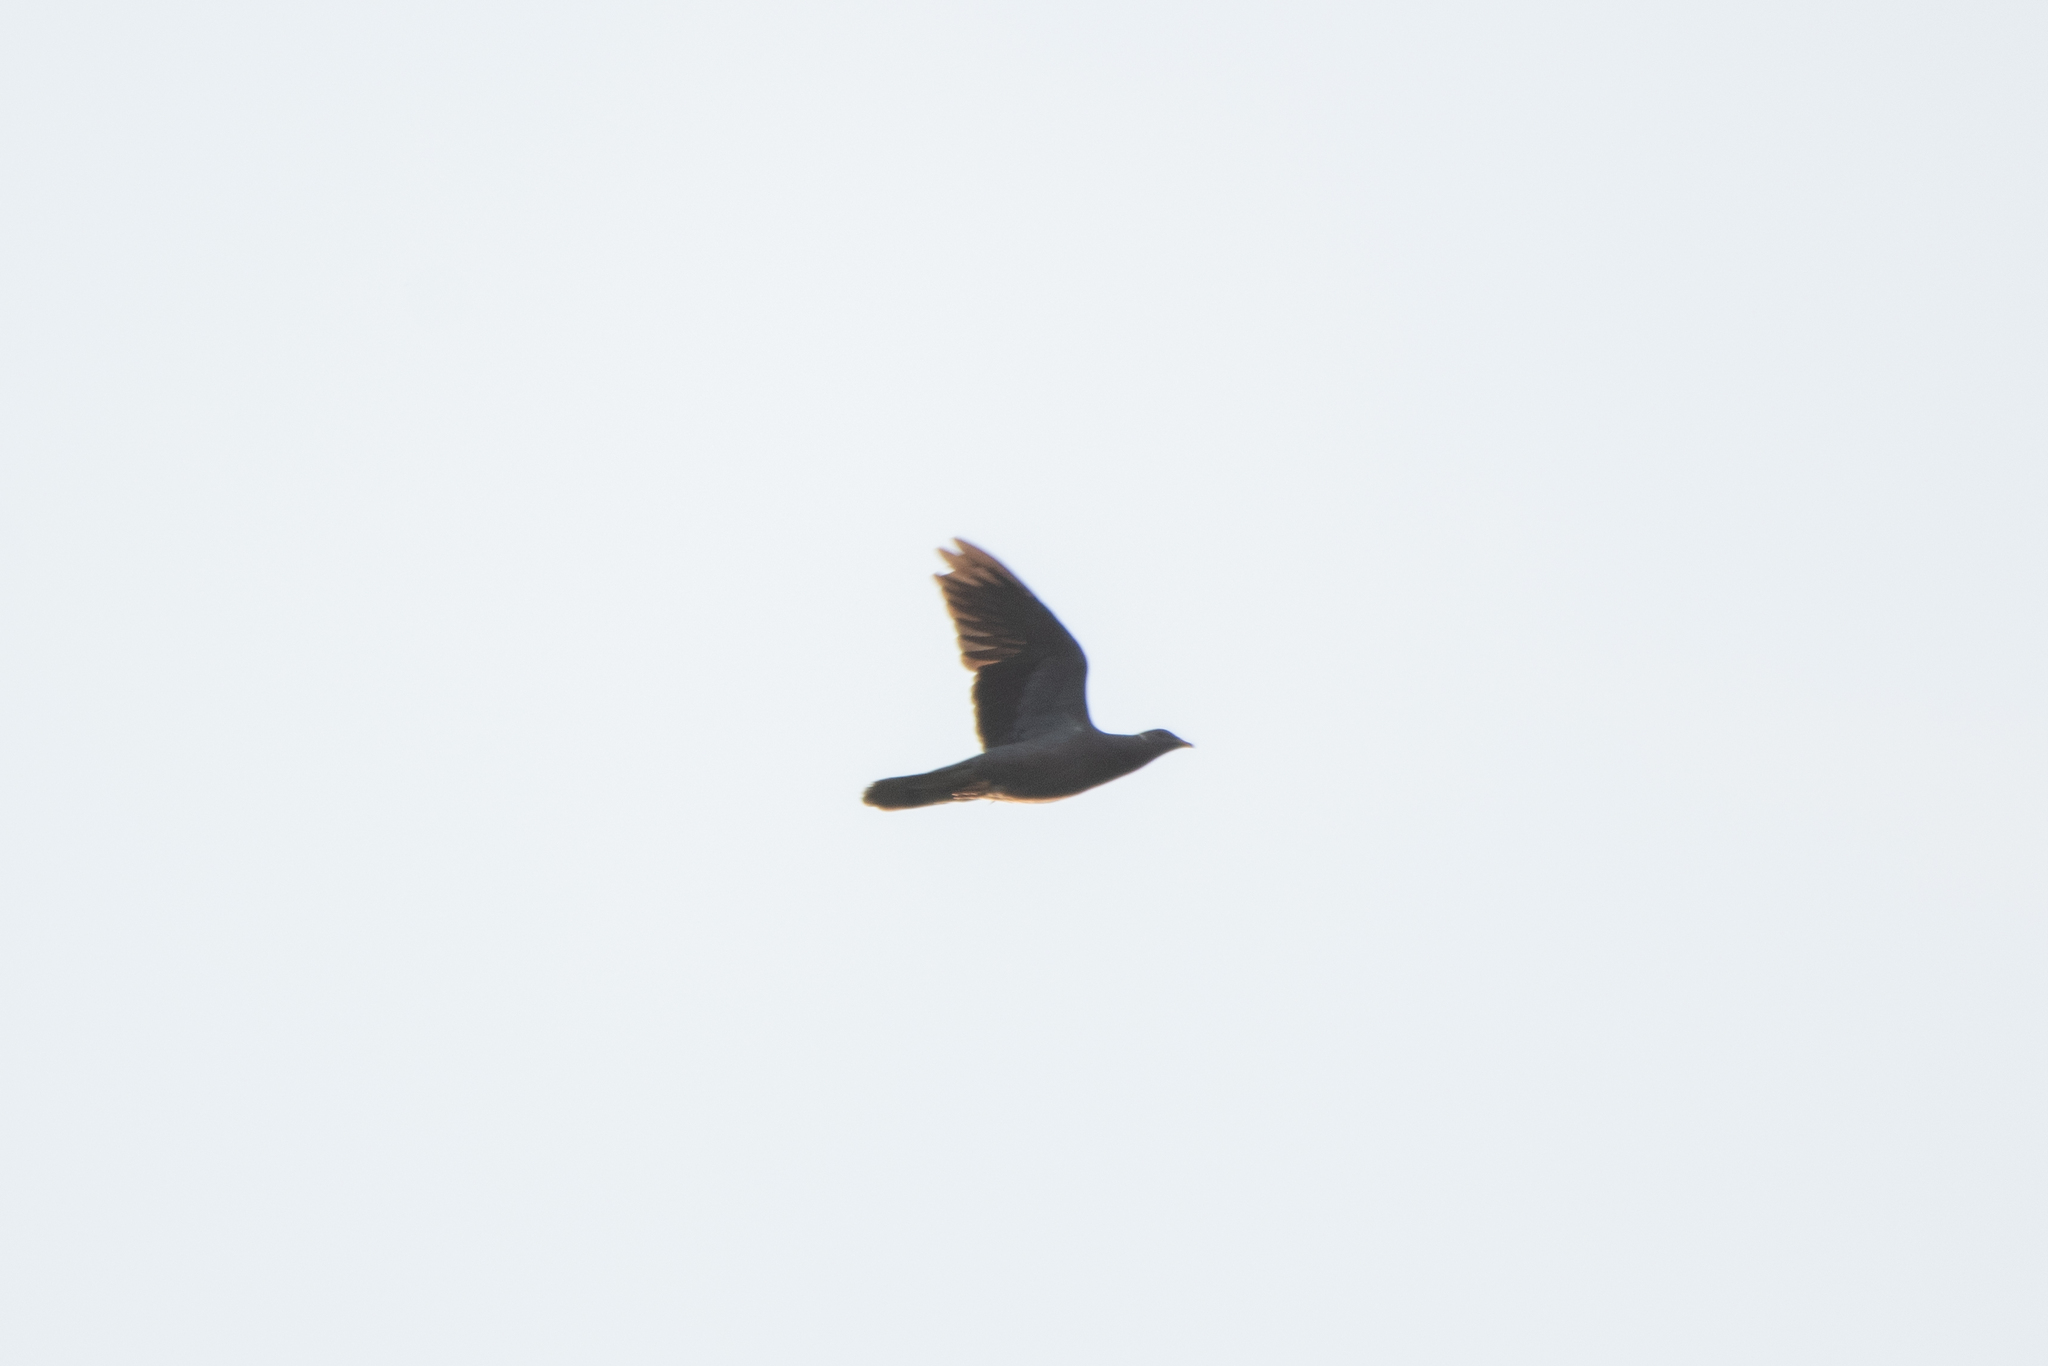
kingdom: Animalia
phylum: Chordata
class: Aves
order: Columbiformes
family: Columbidae
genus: Patagioenas
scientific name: Patagioenas fasciata
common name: Band-tailed pigeon
